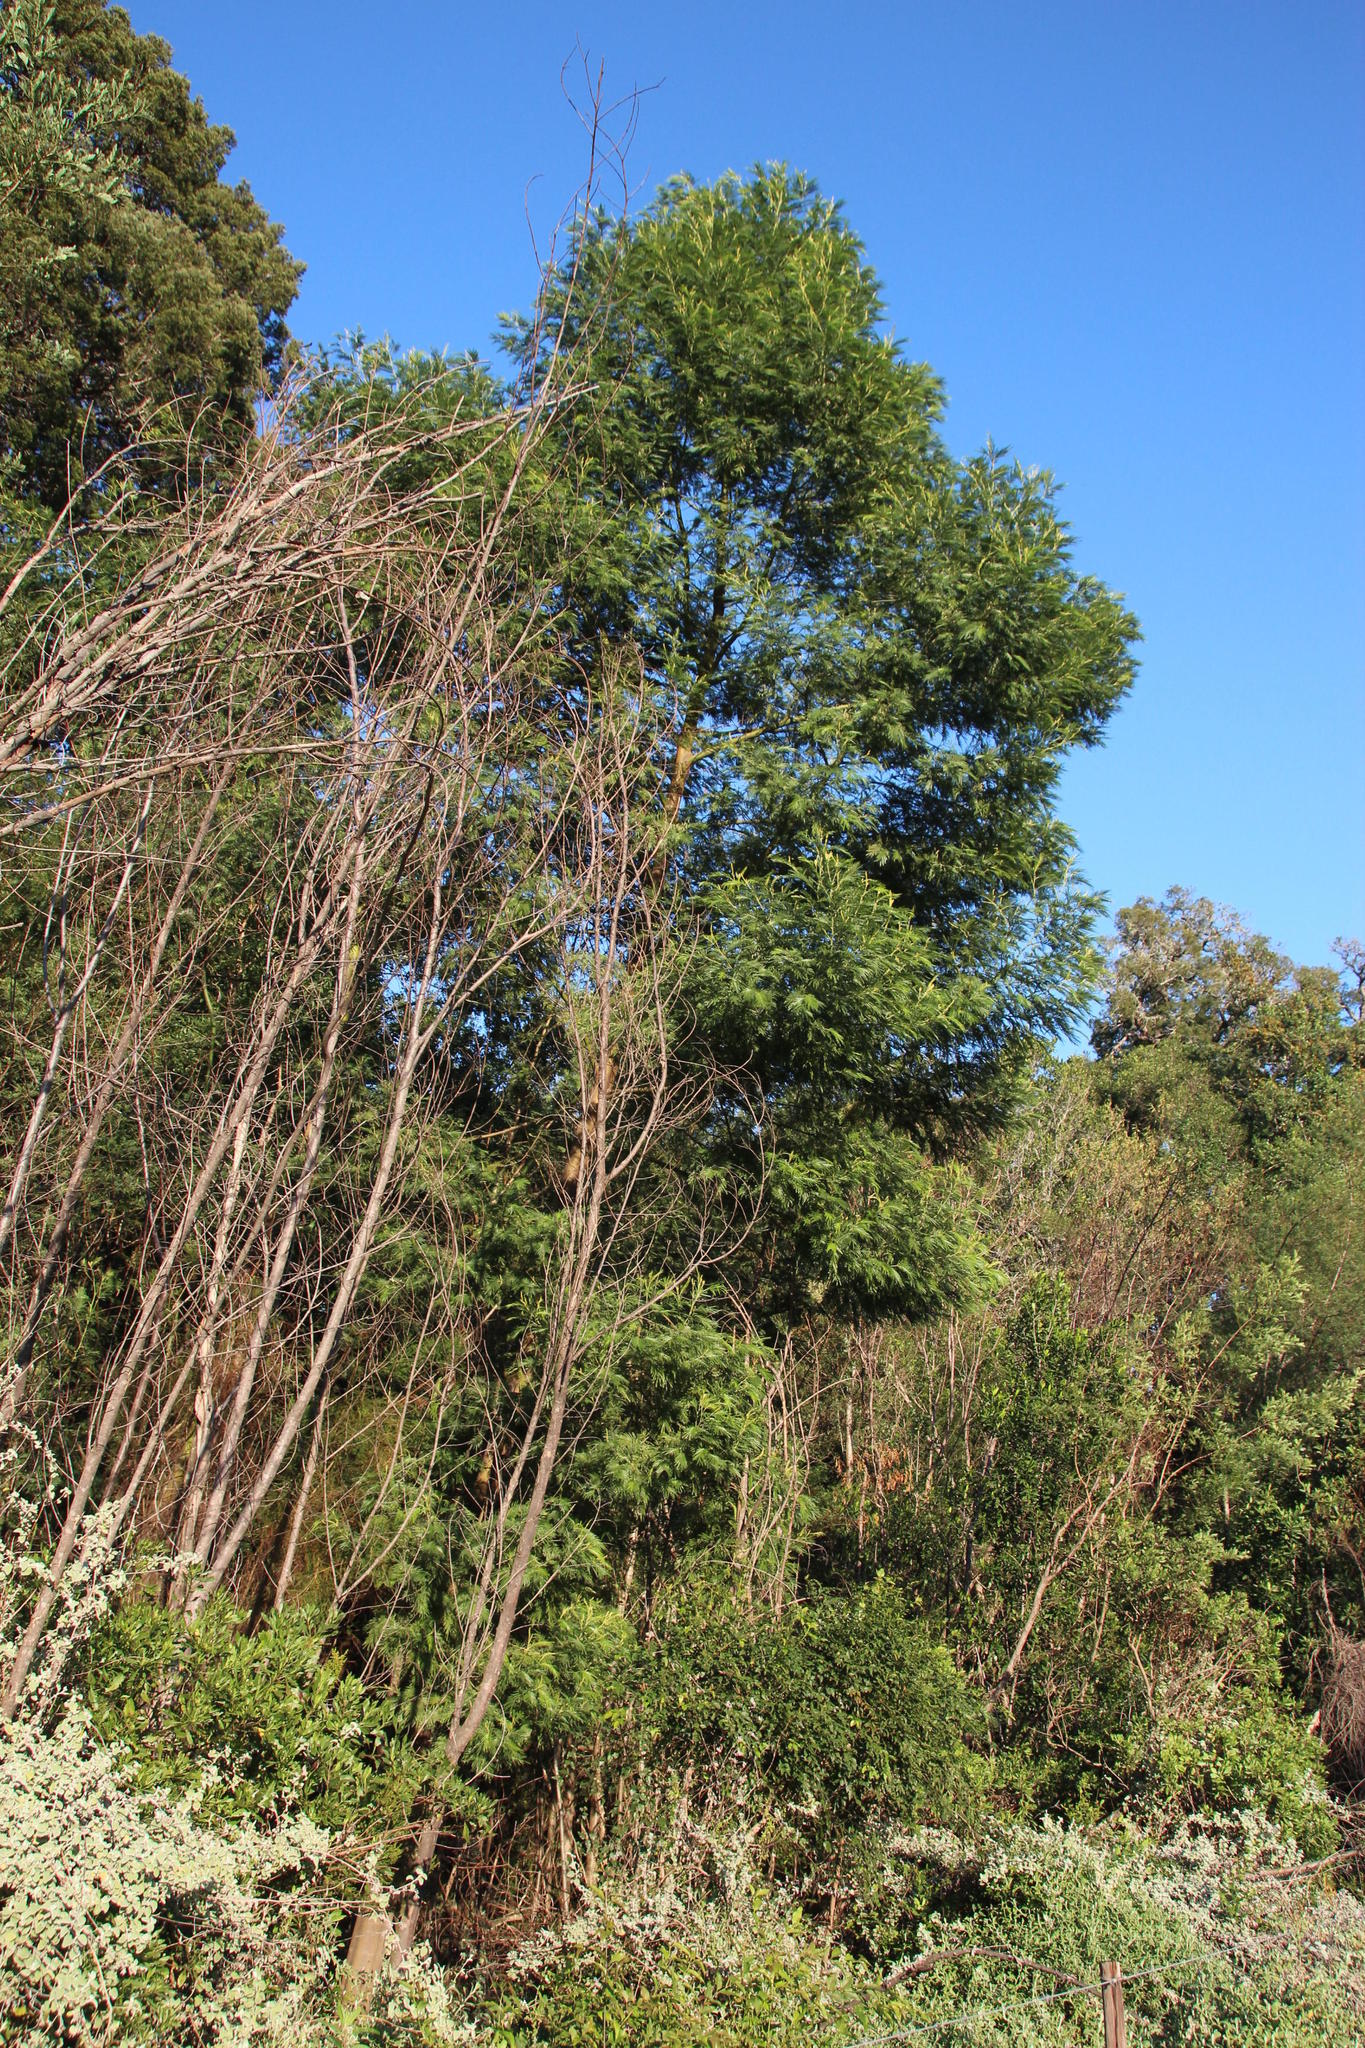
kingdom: Plantae
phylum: Tracheophyta
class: Magnoliopsida
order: Fabales
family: Fabaceae
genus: Acacia
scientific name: Acacia mearnsii
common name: Black wattle
